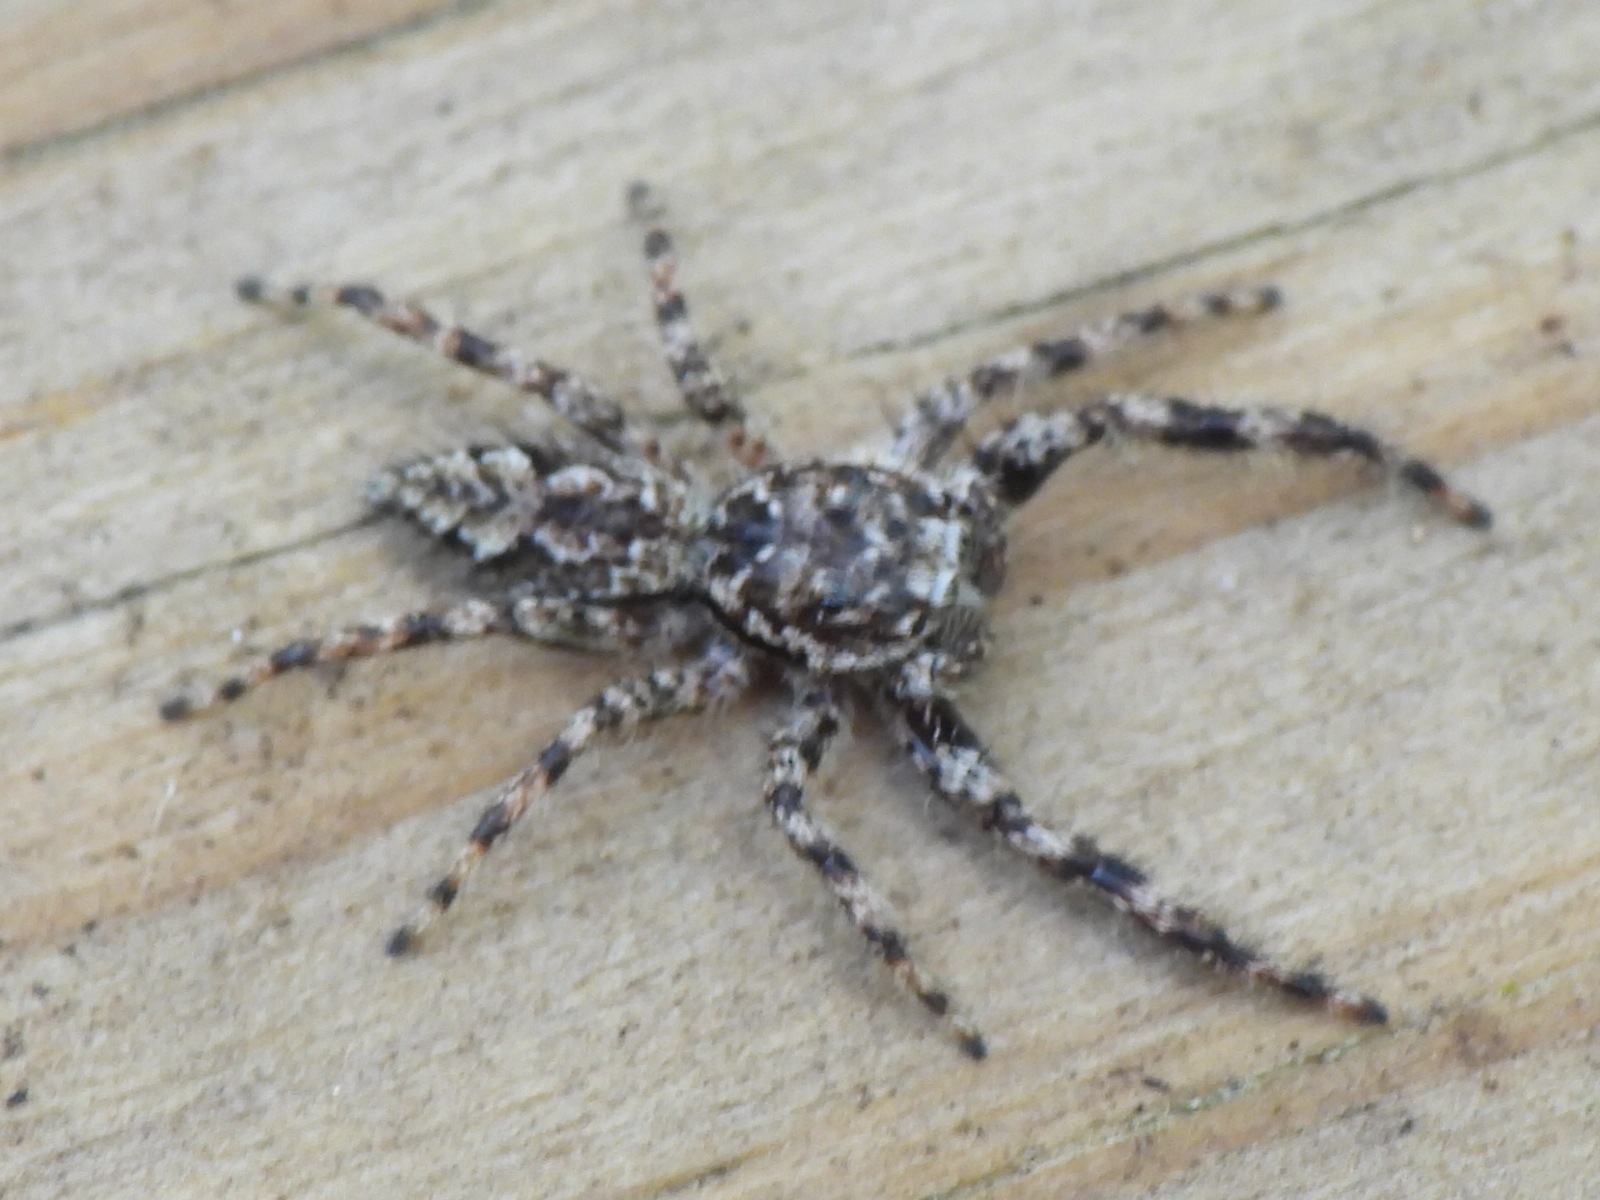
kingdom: Animalia
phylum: Arthropoda
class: Arachnida
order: Araneae
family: Salticidae
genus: Platycryptus
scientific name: Platycryptus undatus
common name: Tan jumping spider
